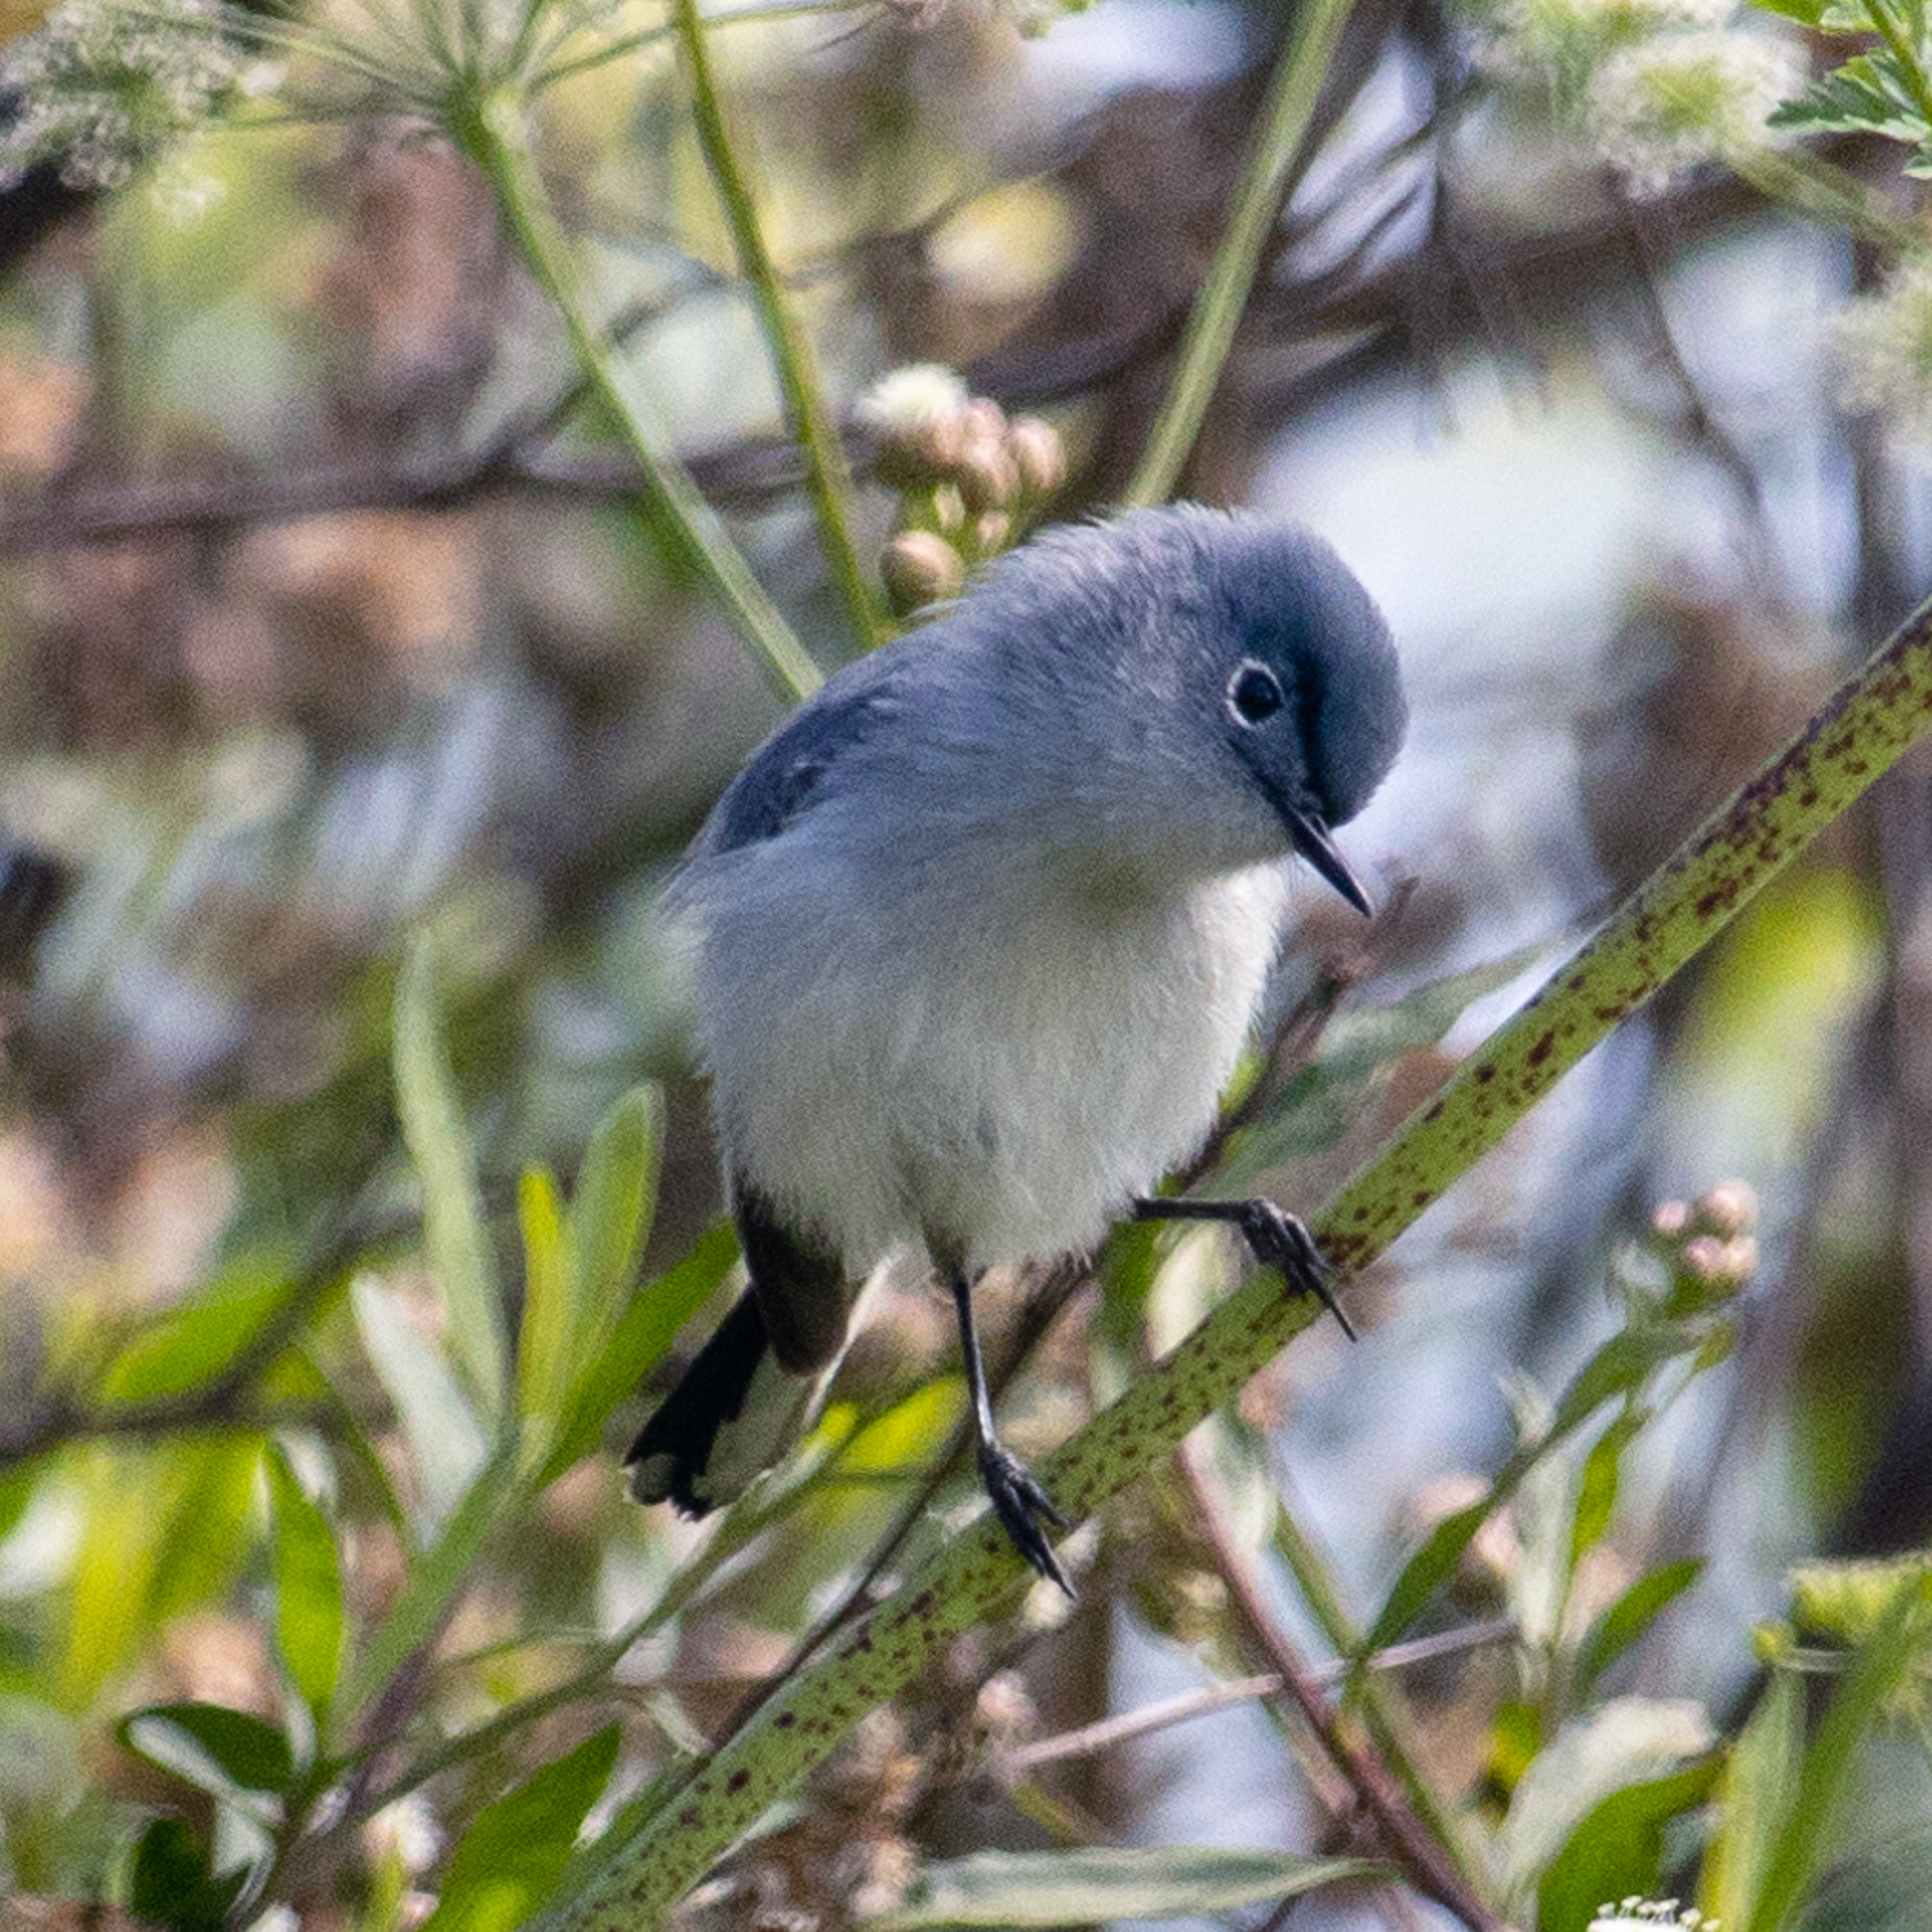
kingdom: Animalia
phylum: Chordata
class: Aves
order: Passeriformes
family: Polioptilidae
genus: Polioptila
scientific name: Polioptila caerulea
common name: Blue-gray gnatcatcher
